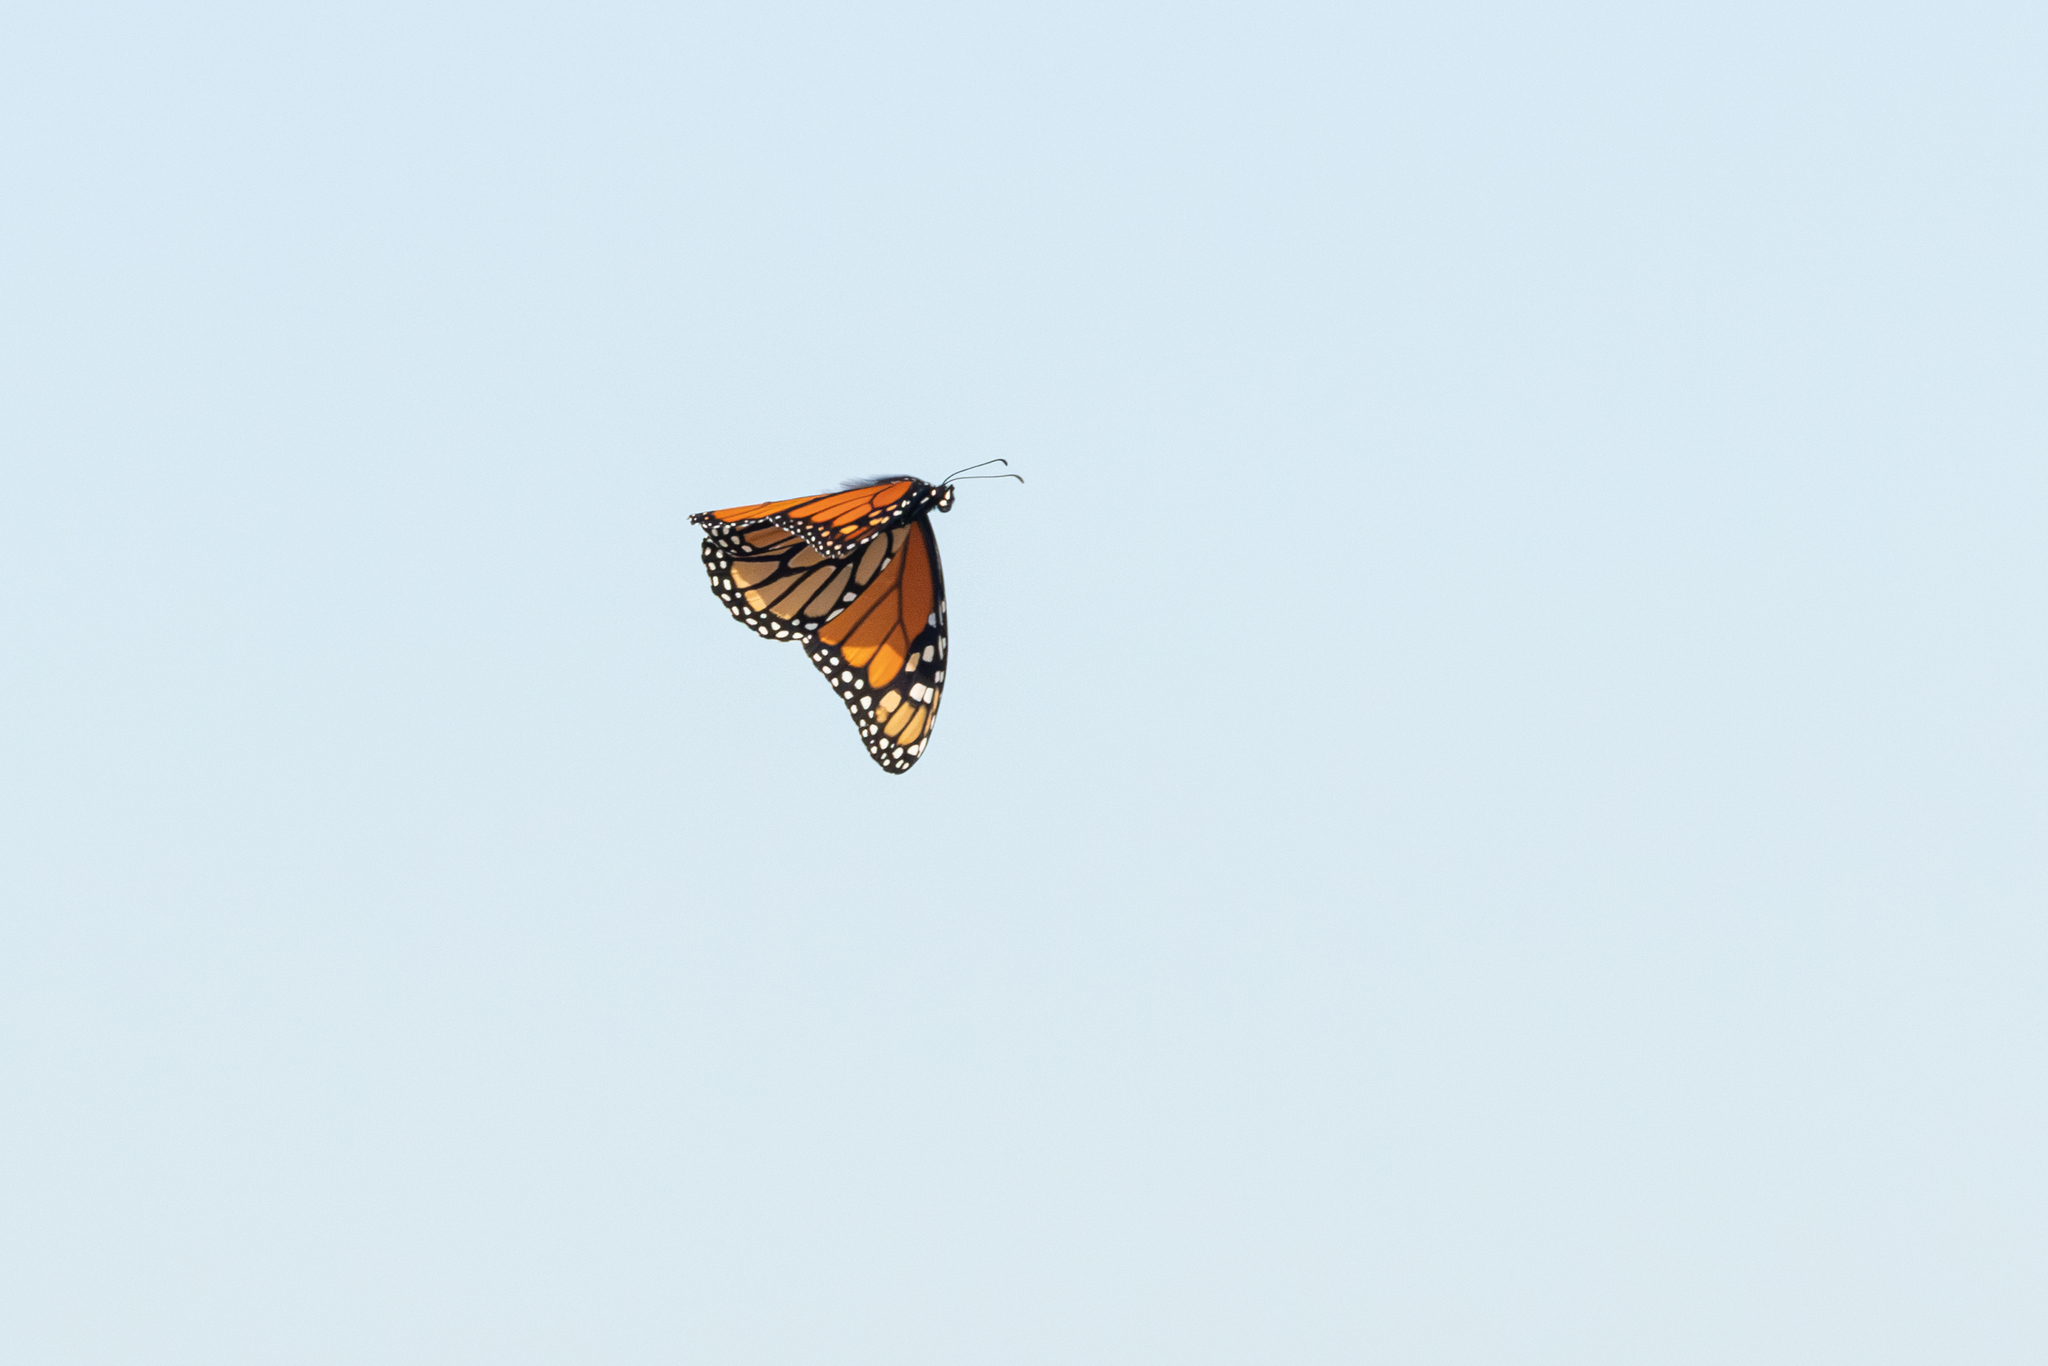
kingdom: Animalia
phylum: Arthropoda
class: Insecta
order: Lepidoptera
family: Nymphalidae
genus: Danaus
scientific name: Danaus plexippus
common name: Monarch
